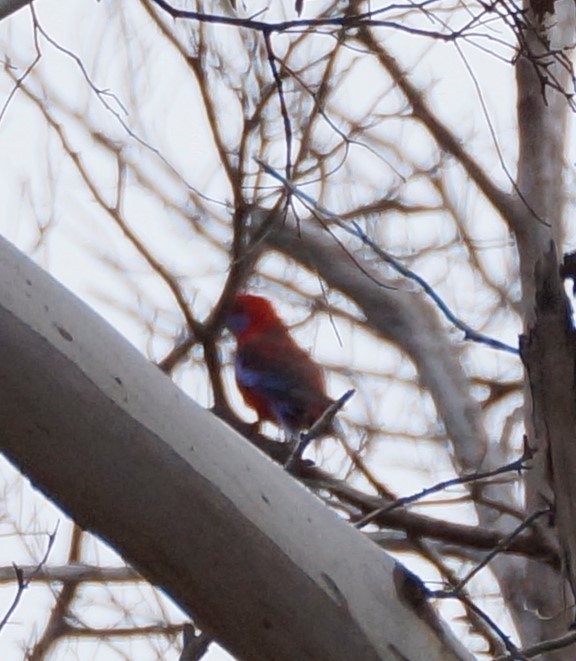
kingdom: Animalia
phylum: Chordata
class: Aves
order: Psittaciformes
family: Psittacidae
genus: Platycercus
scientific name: Platycercus elegans
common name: Crimson rosella
